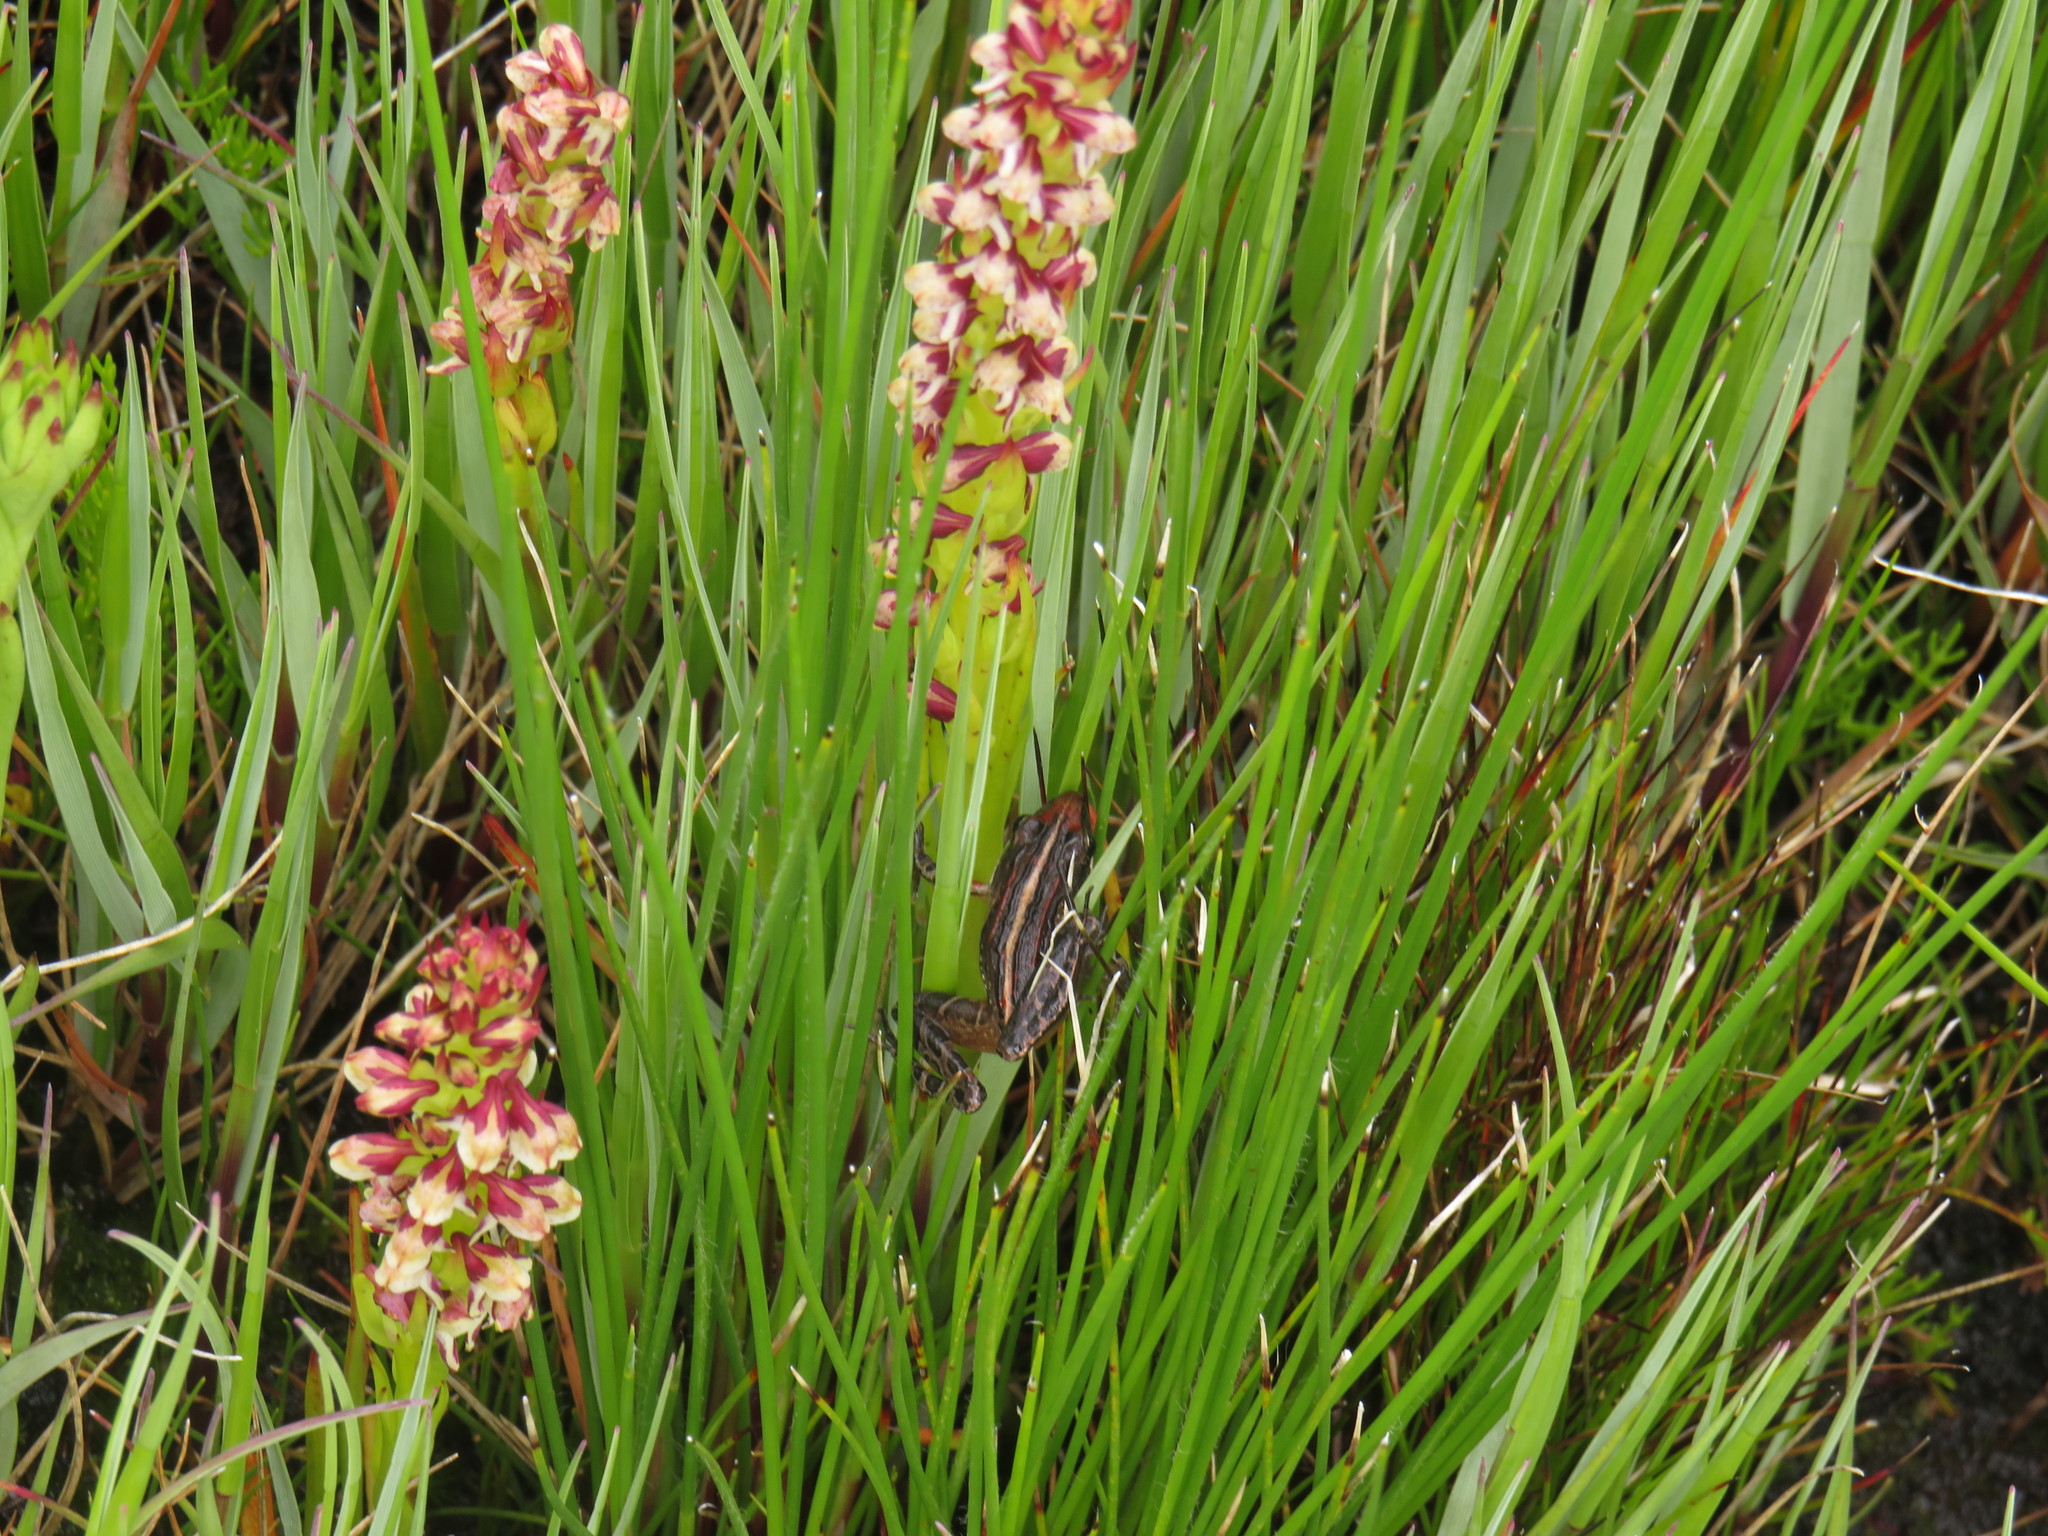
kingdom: Animalia
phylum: Chordata
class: Amphibia
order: Anura
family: Pyxicephalidae
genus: Strongylopus
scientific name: Strongylopus bonaespei
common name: Banded stream frog
